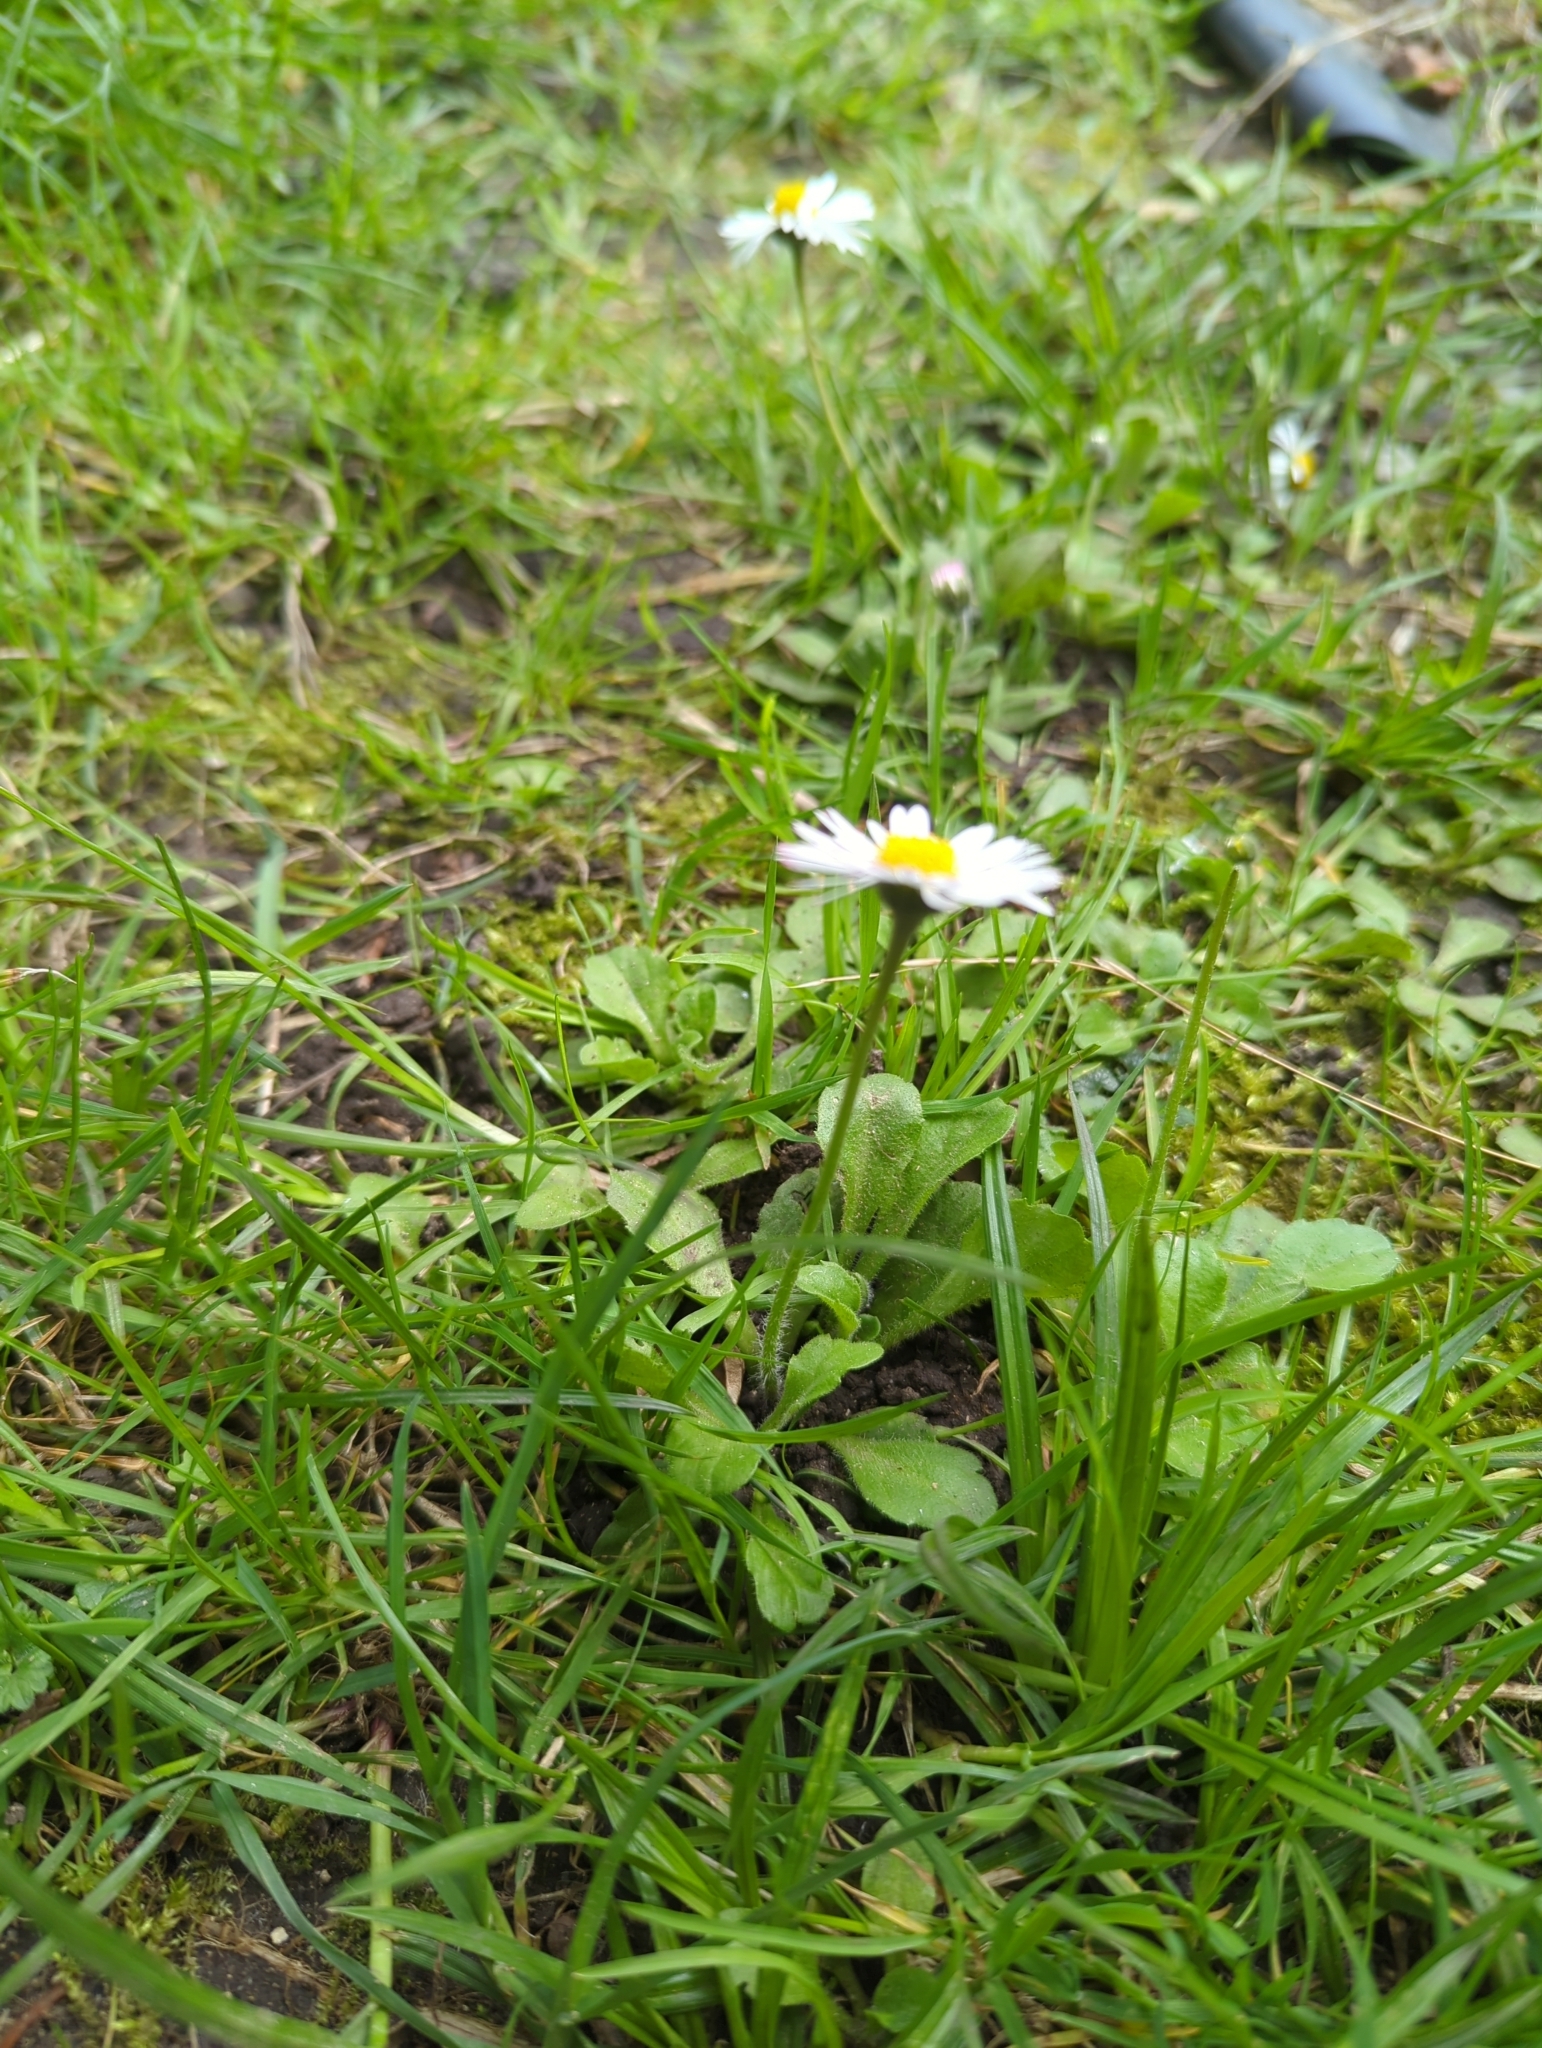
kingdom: Plantae
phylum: Tracheophyta
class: Magnoliopsida
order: Asterales
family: Asteraceae
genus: Bellis
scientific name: Bellis perennis
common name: Lawndaisy
